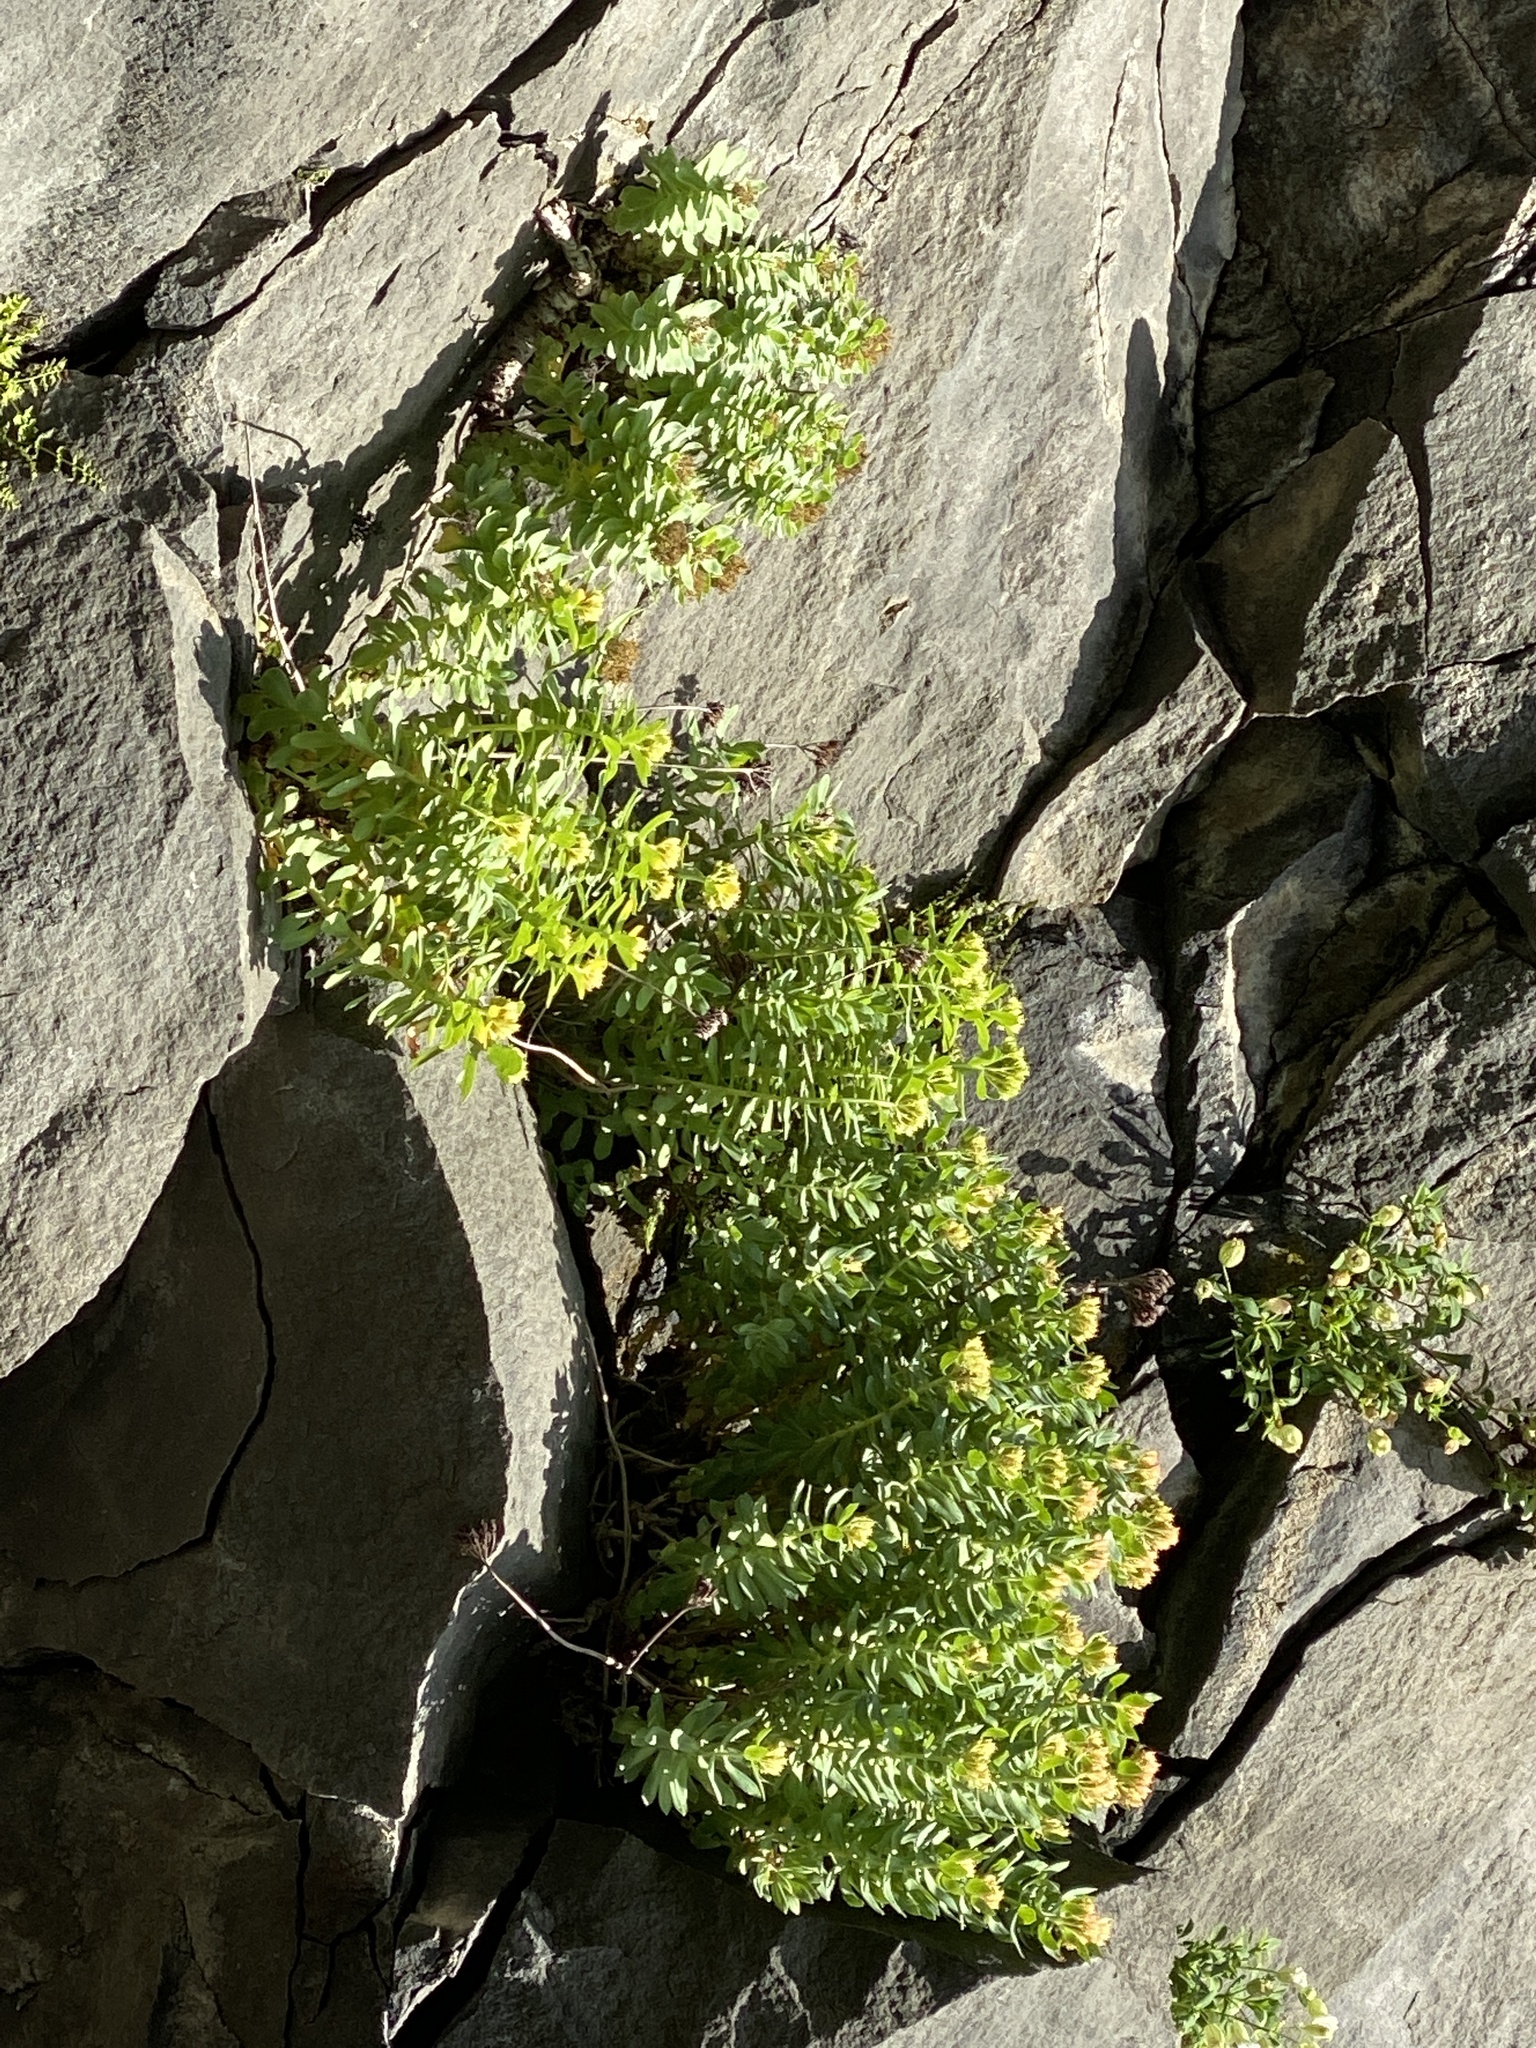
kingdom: Plantae
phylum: Tracheophyta
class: Magnoliopsida
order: Saxifragales
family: Crassulaceae
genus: Rhodiola
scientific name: Rhodiola rosea
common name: Roseroot
